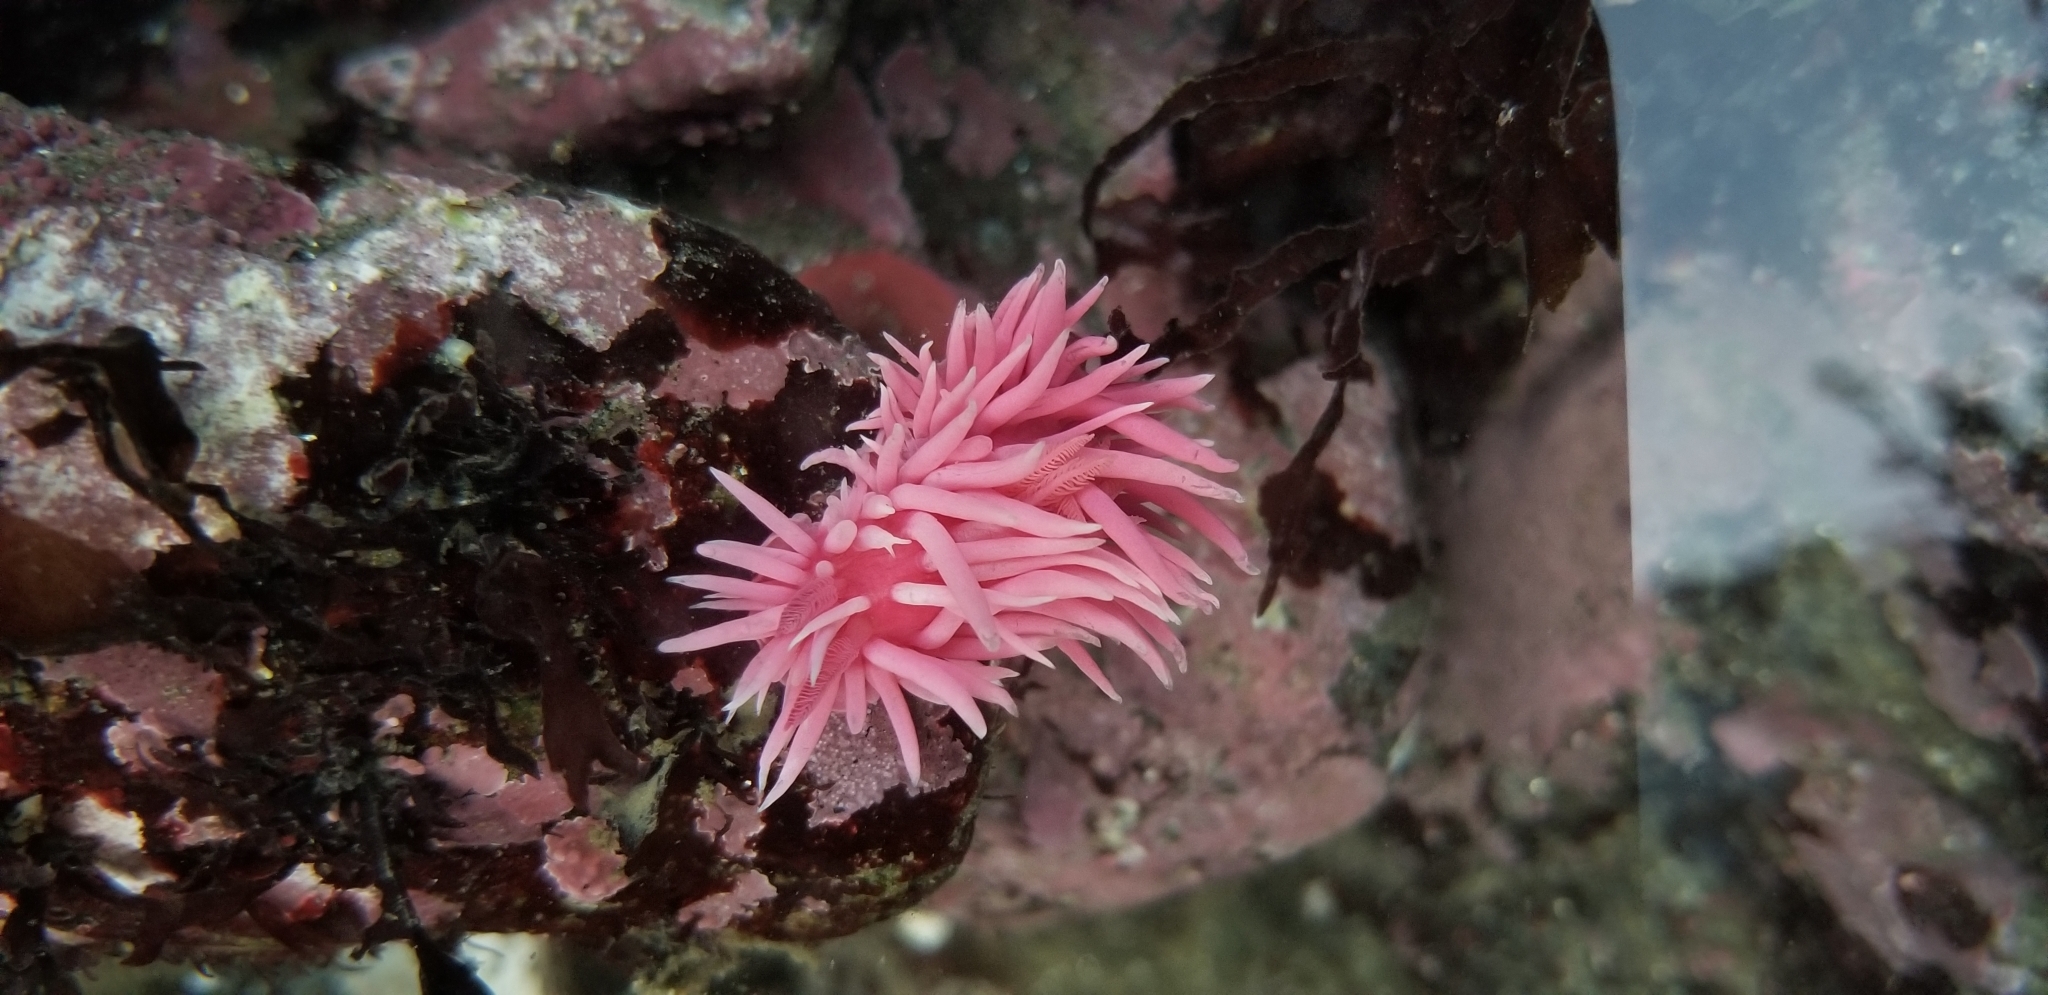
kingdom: Animalia
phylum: Mollusca
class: Gastropoda
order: Nudibranchia
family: Goniodorididae
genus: Okenia
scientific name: Okenia
